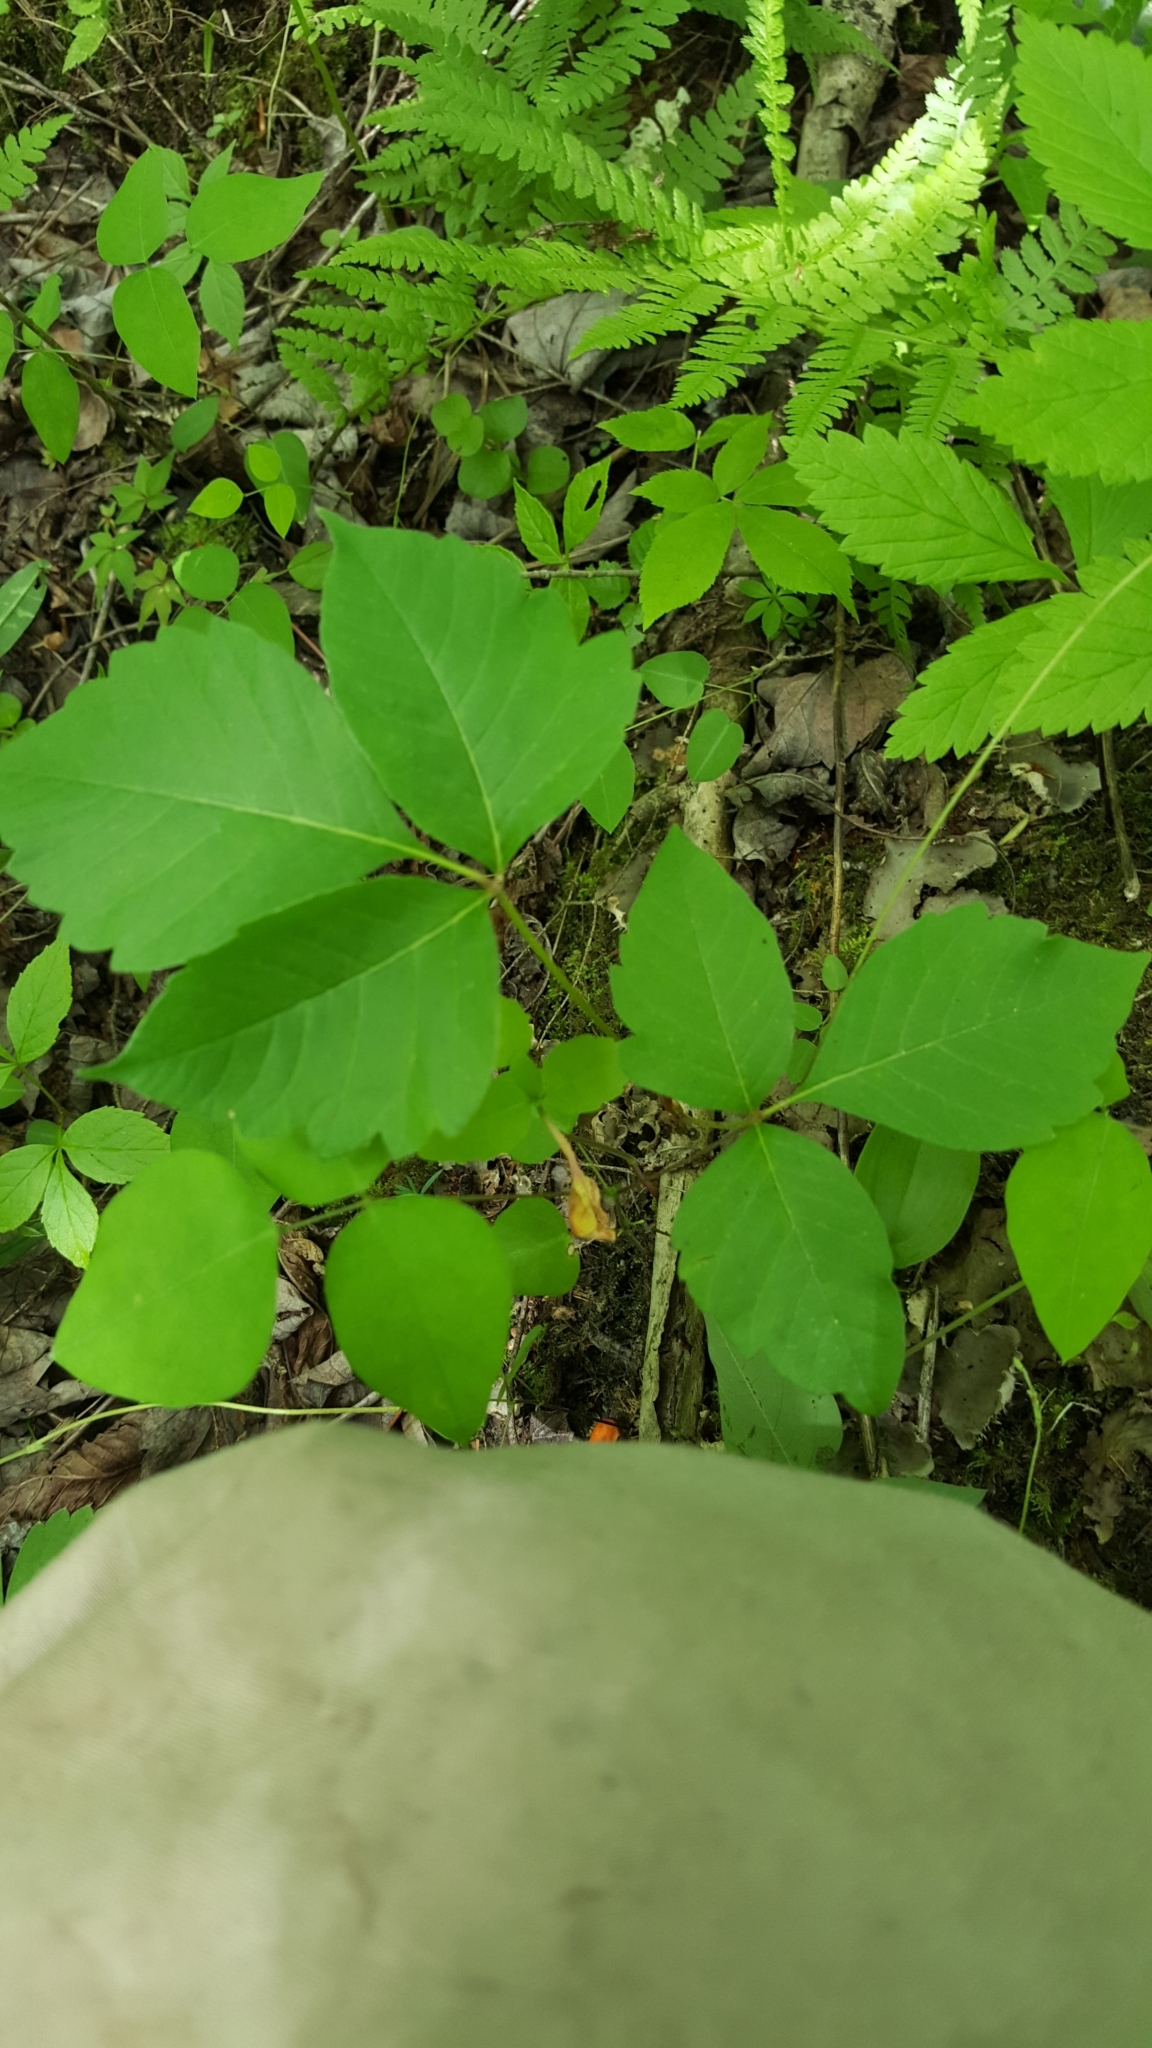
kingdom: Plantae
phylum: Tracheophyta
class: Magnoliopsida
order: Sapindales
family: Anacardiaceae
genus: Toxicodendron
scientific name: Toxicodendron rydbergii
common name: Rydberg's poison-ivy
